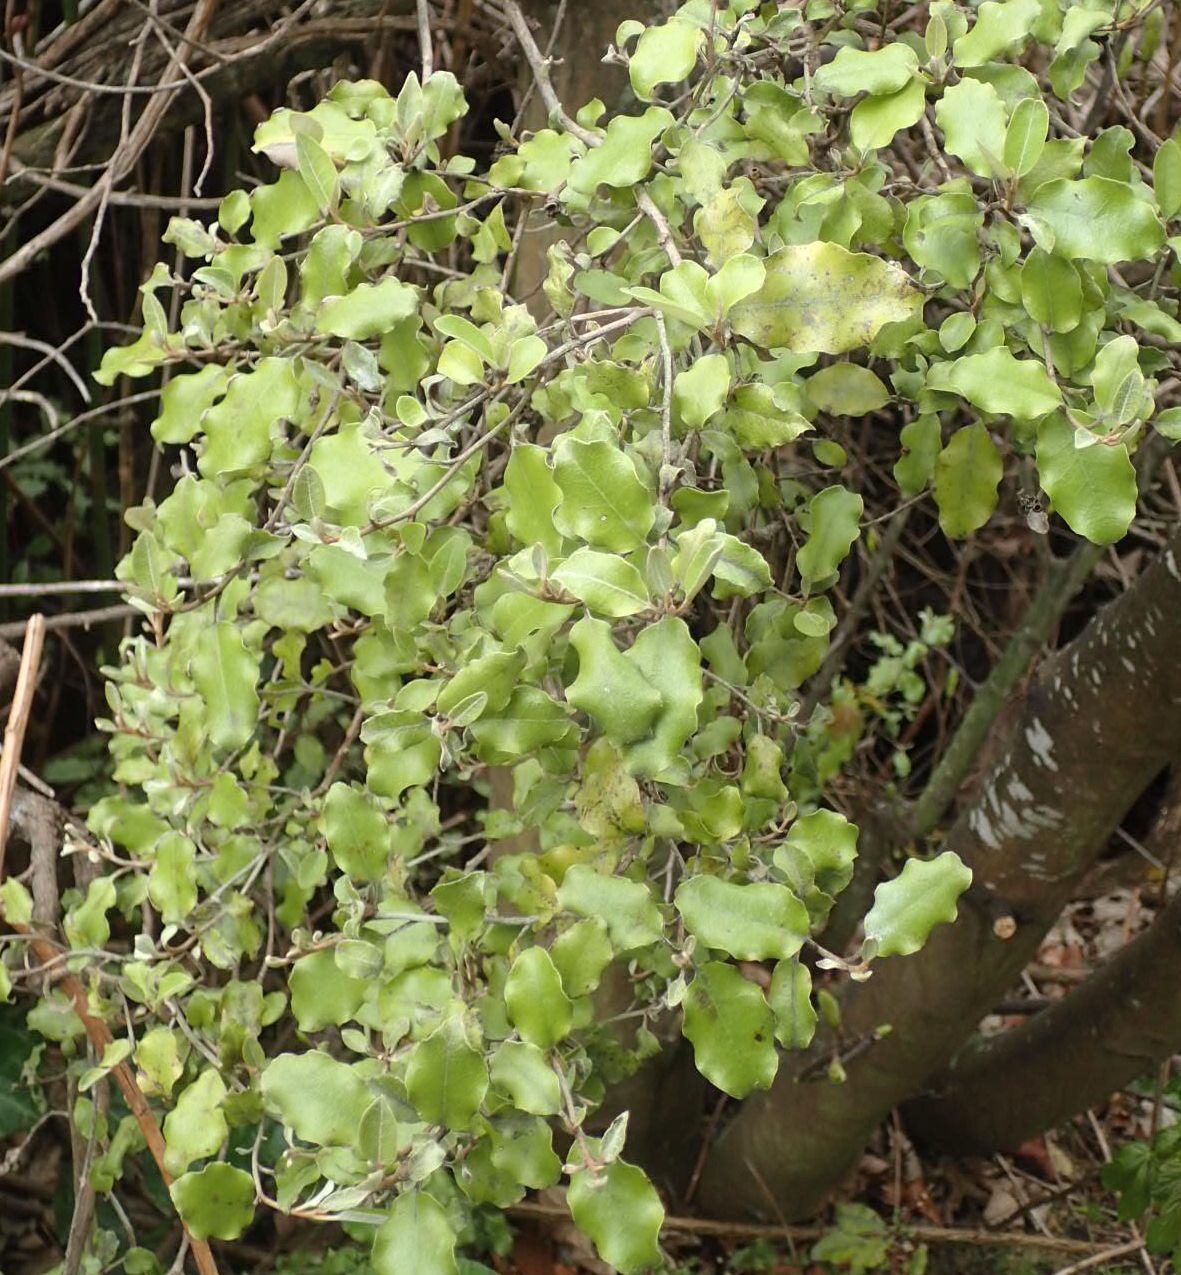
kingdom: Plantae
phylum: Tracheophyta
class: Magnoliopsida
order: Asterales
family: Asteraceae
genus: Olearia
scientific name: Olearia paniculata
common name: Akiraho
